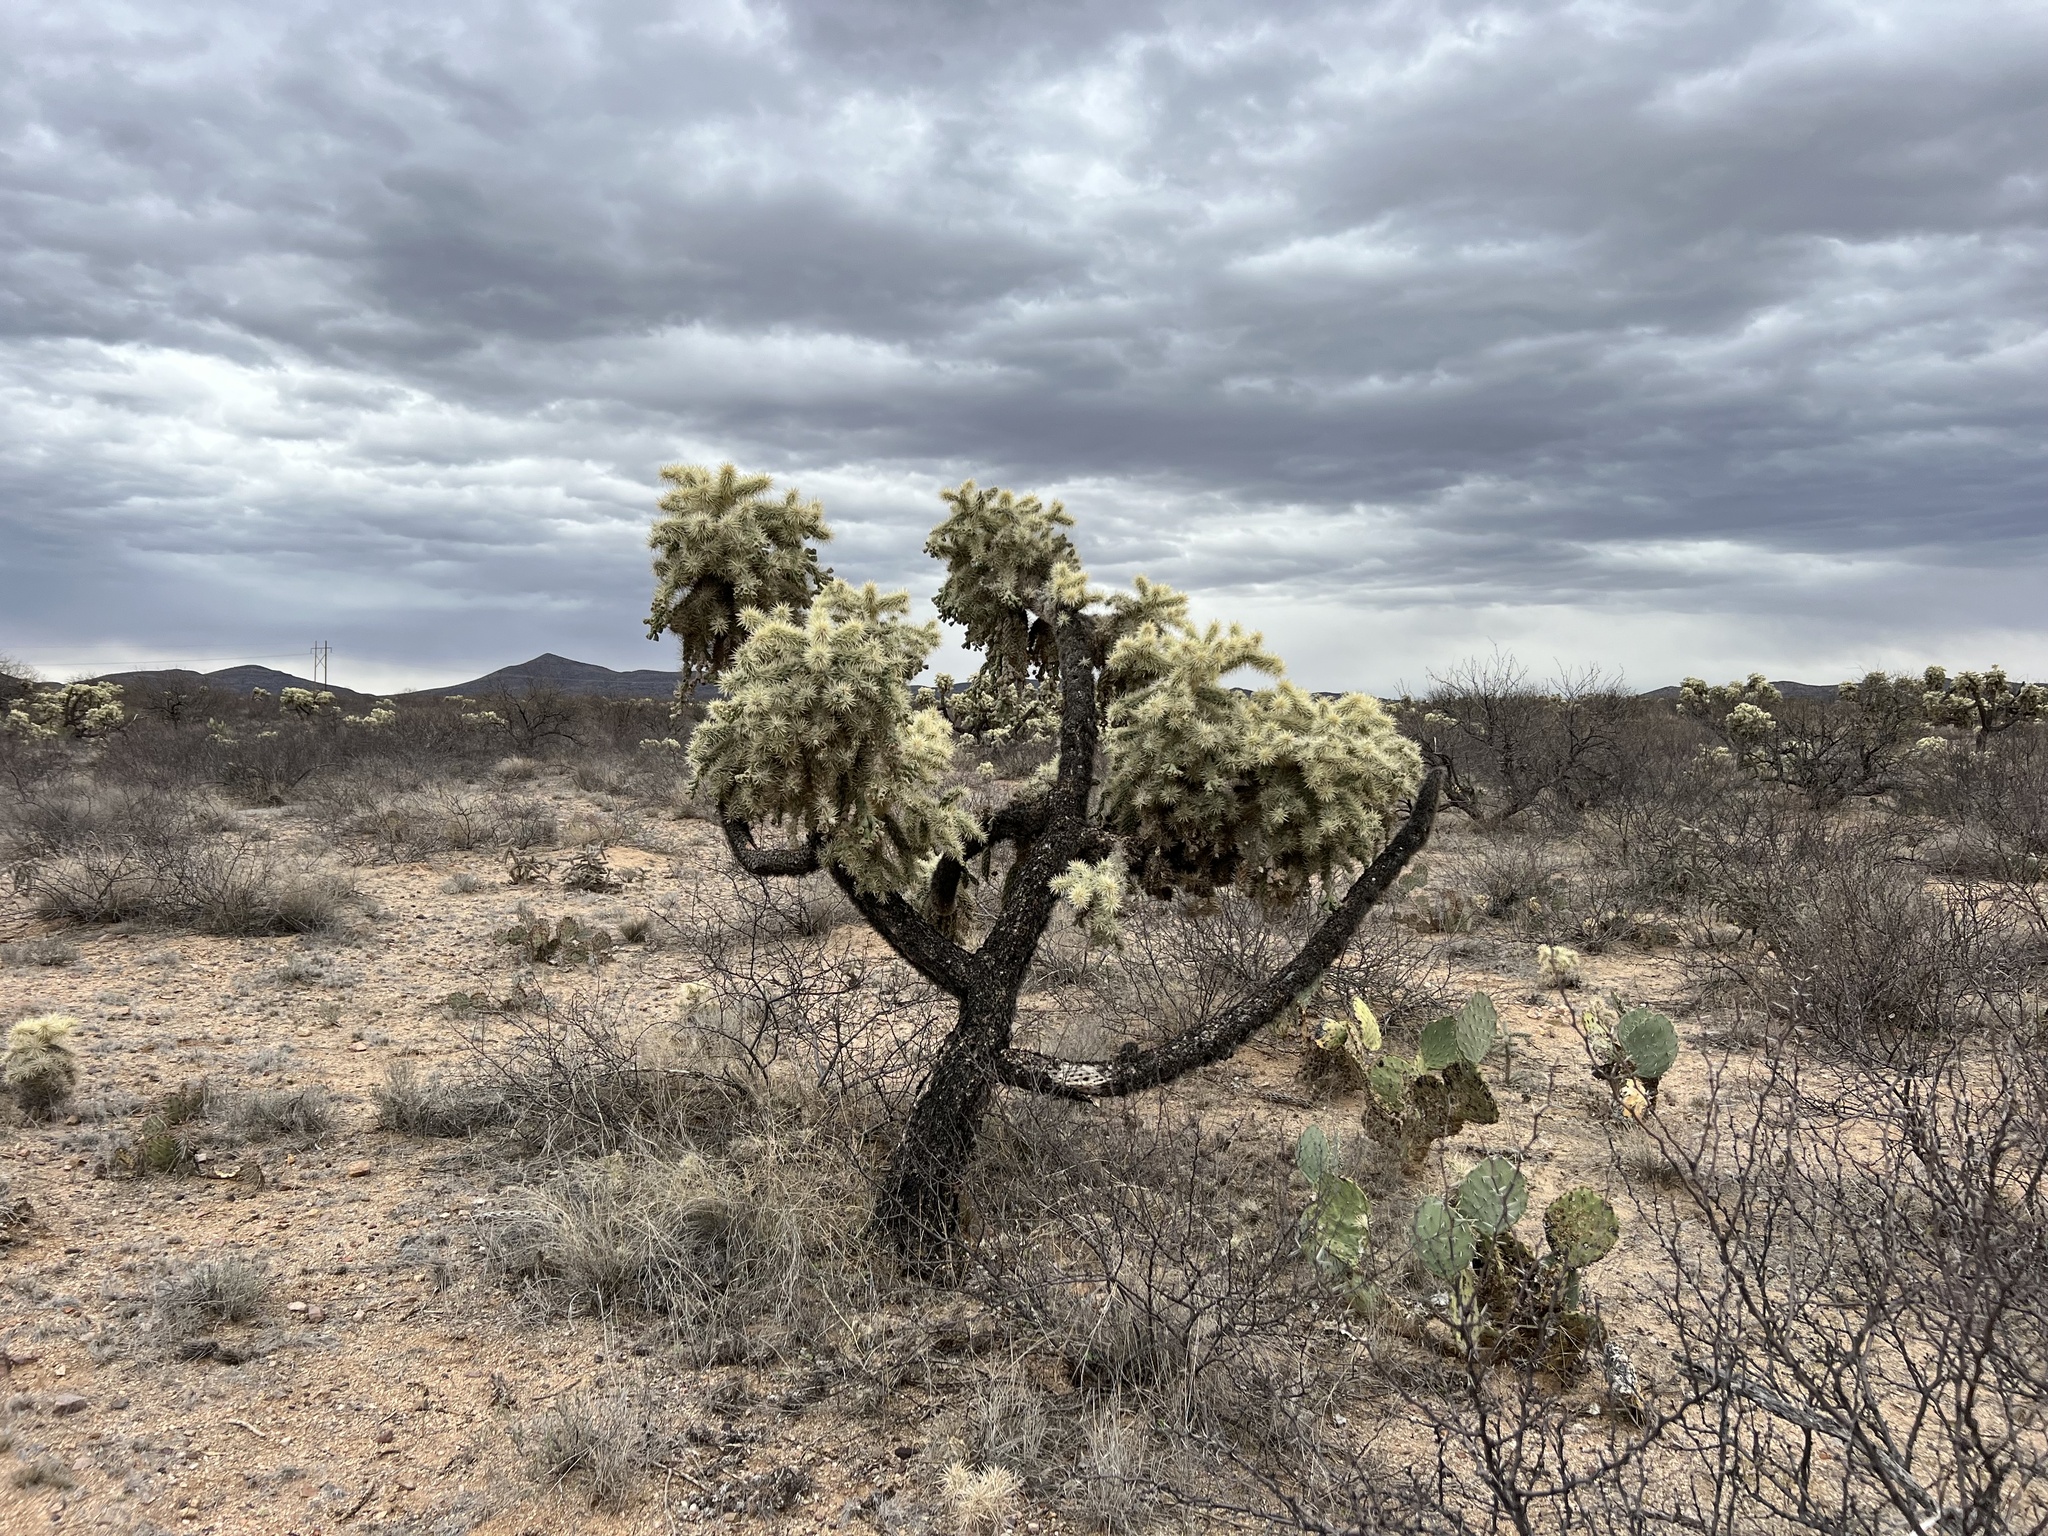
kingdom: Plantae
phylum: Tracheophyta
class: Magnoliopsida
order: Caryophyllales
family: Cactaceae
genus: Cylindropuntia
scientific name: Cylindropuntia fulgida
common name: Jumping cholla
